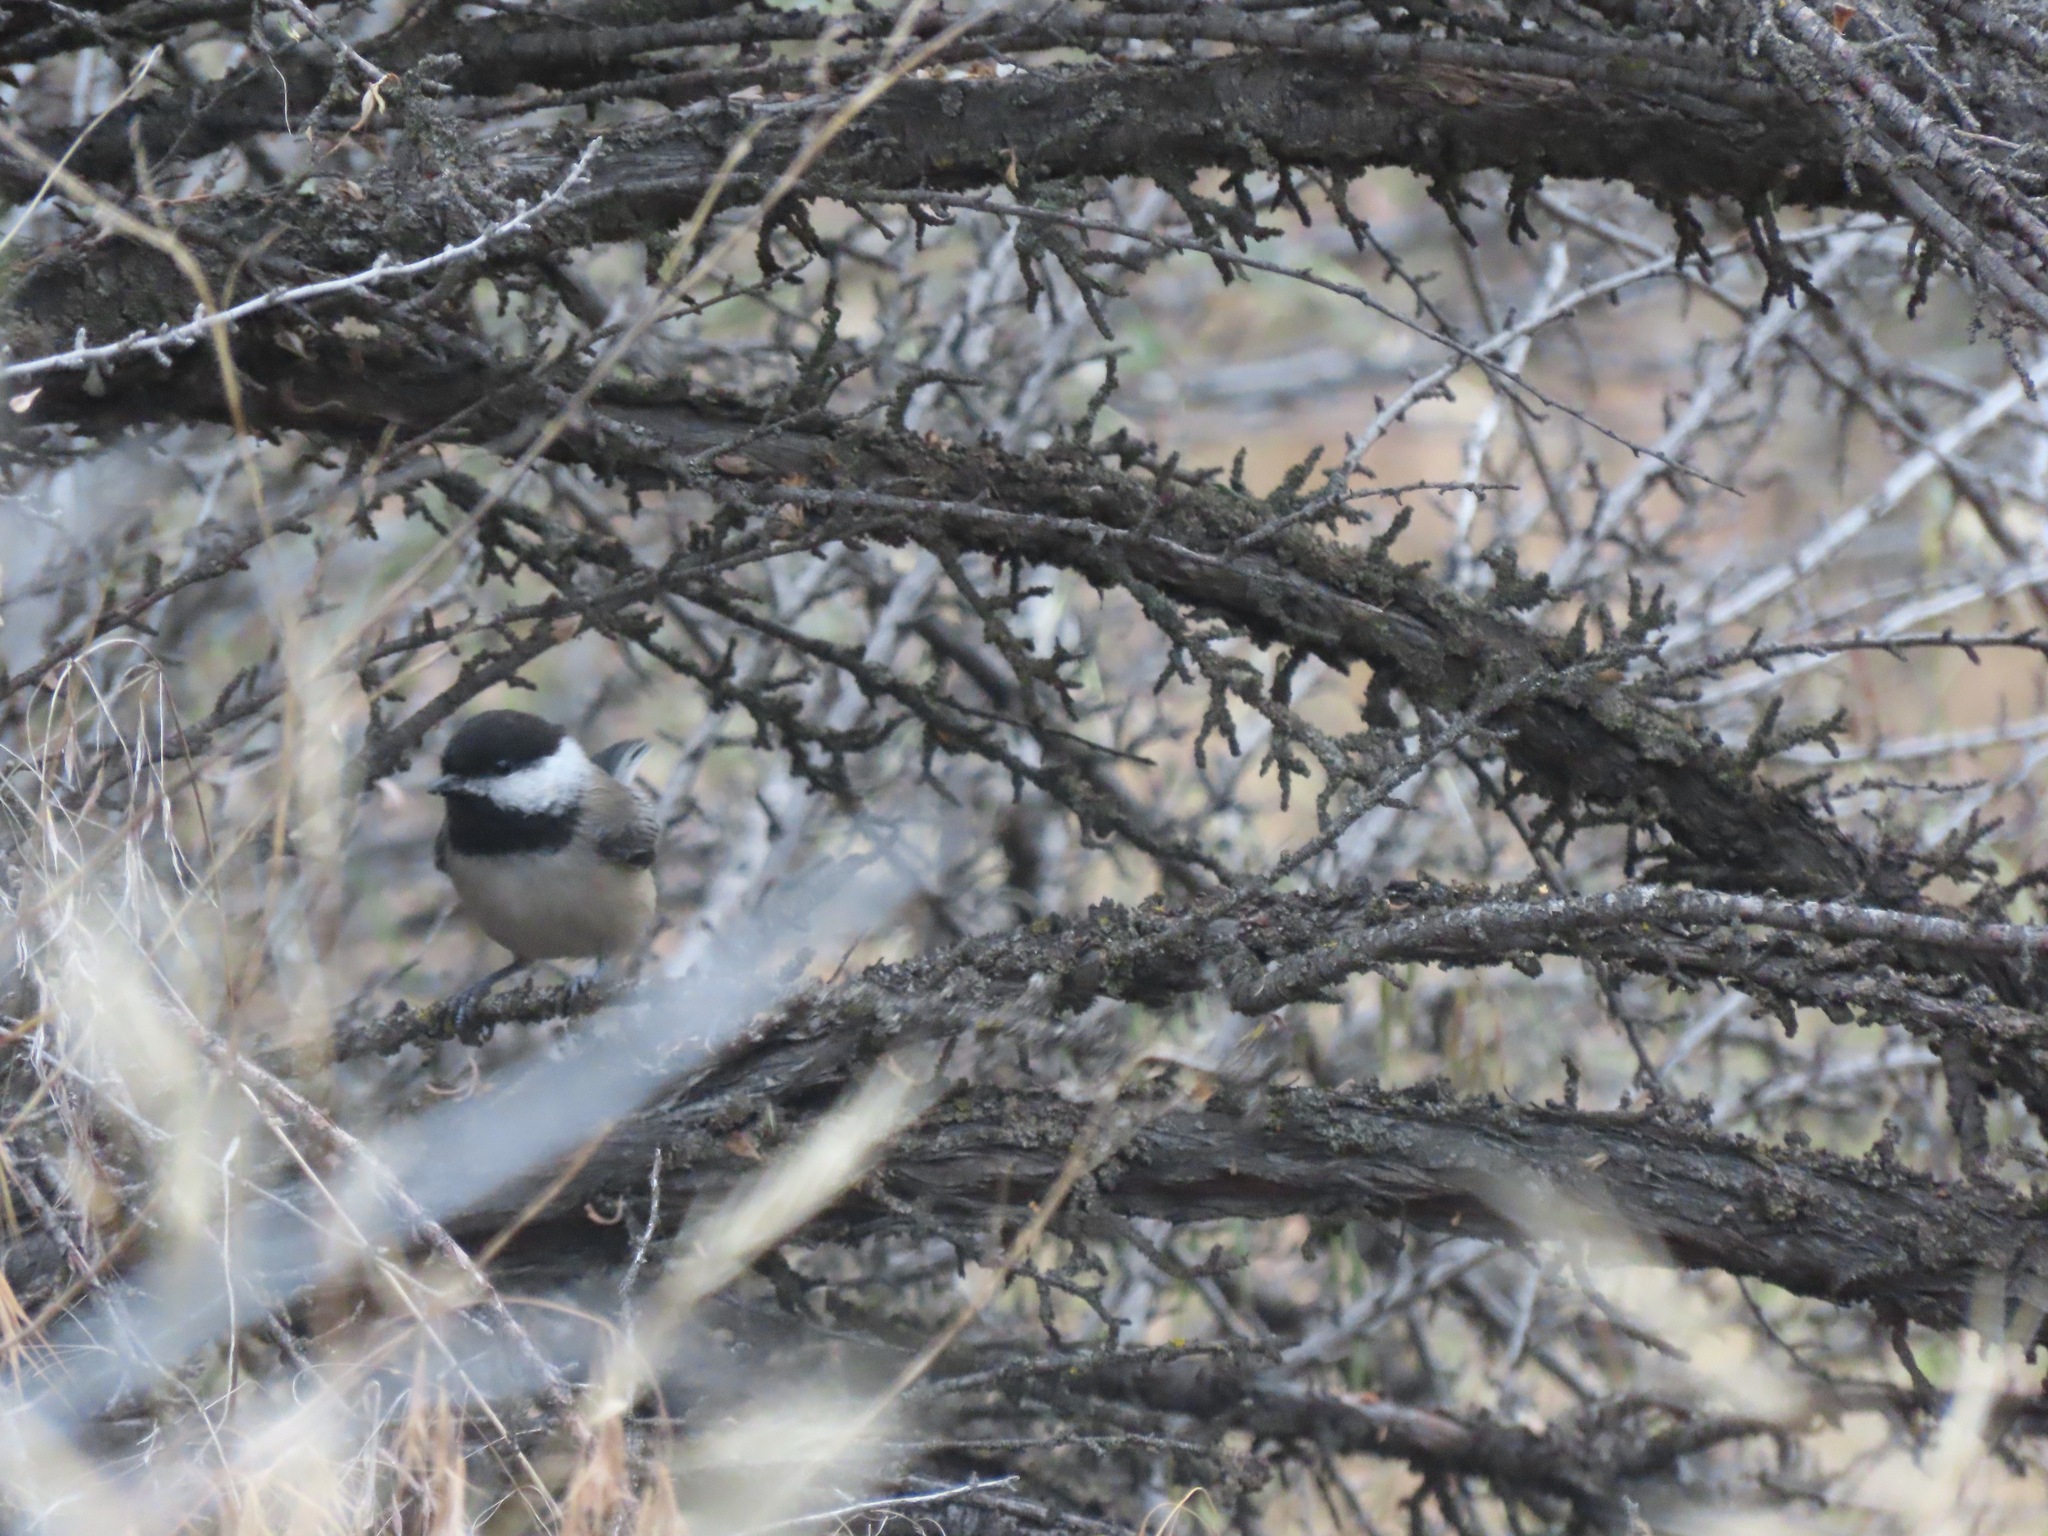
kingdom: Animalia
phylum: Chordata
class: Aves
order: Passeriformes
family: Paridae
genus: Poecile
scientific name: Poecile atricapillus
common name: Black-capped chickadee
